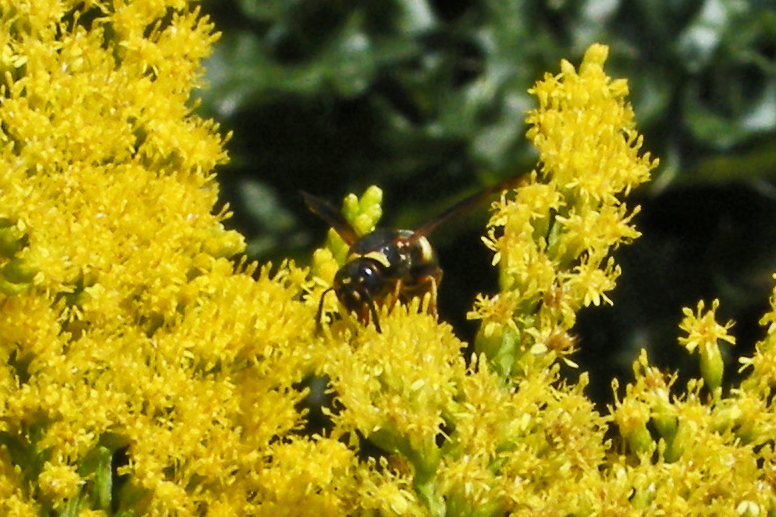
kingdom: Animalia
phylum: Arthropoda
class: Insecta
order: Hymenoptera
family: Eumenidae
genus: Euodynerus
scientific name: Euodynerus hidalgo
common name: Wasp
